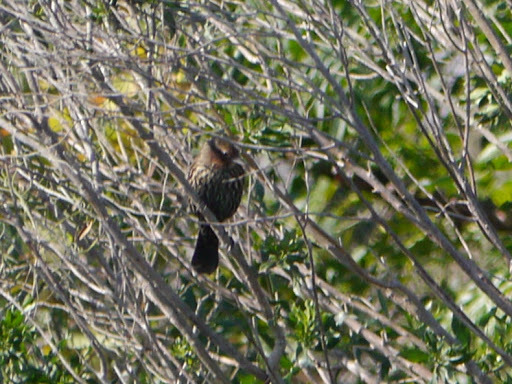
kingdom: Animalia
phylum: Chordata
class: Aves
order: Passeriformes
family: Icteridae
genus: Agelaius
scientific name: Agelaius phoeniceus
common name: Red-winged blackbird
